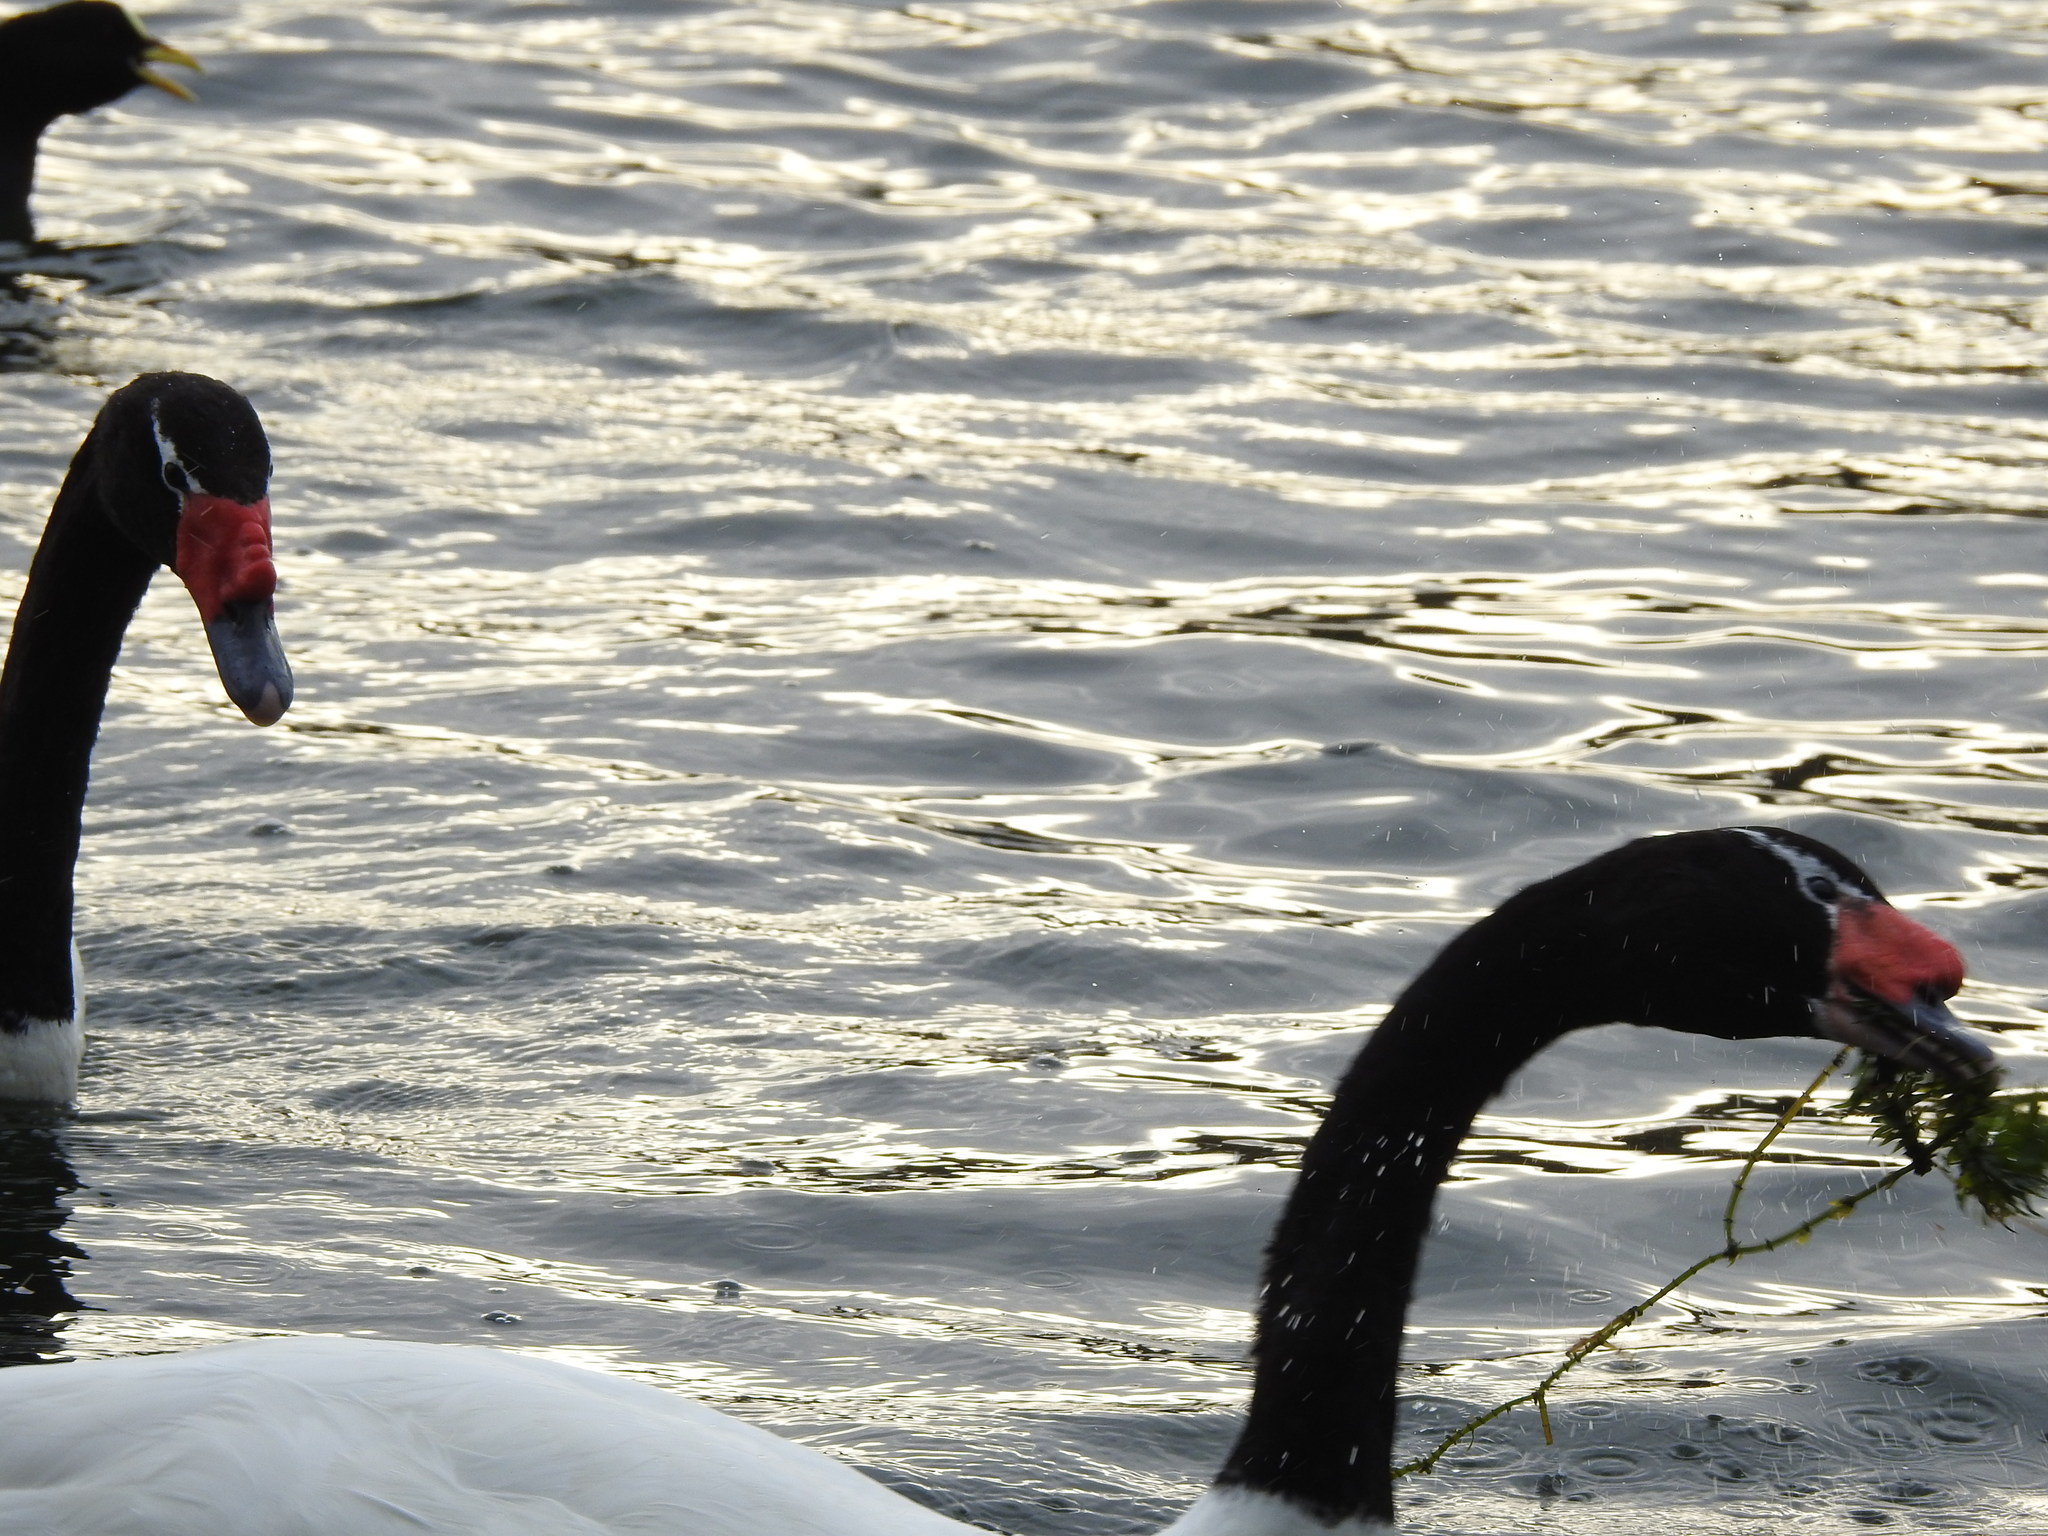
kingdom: Animalia
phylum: Chordata
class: Aves
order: Anseriformes
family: Anatidae
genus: Cygnus
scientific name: Cygnus melancoryphus
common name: Black-necked swan
